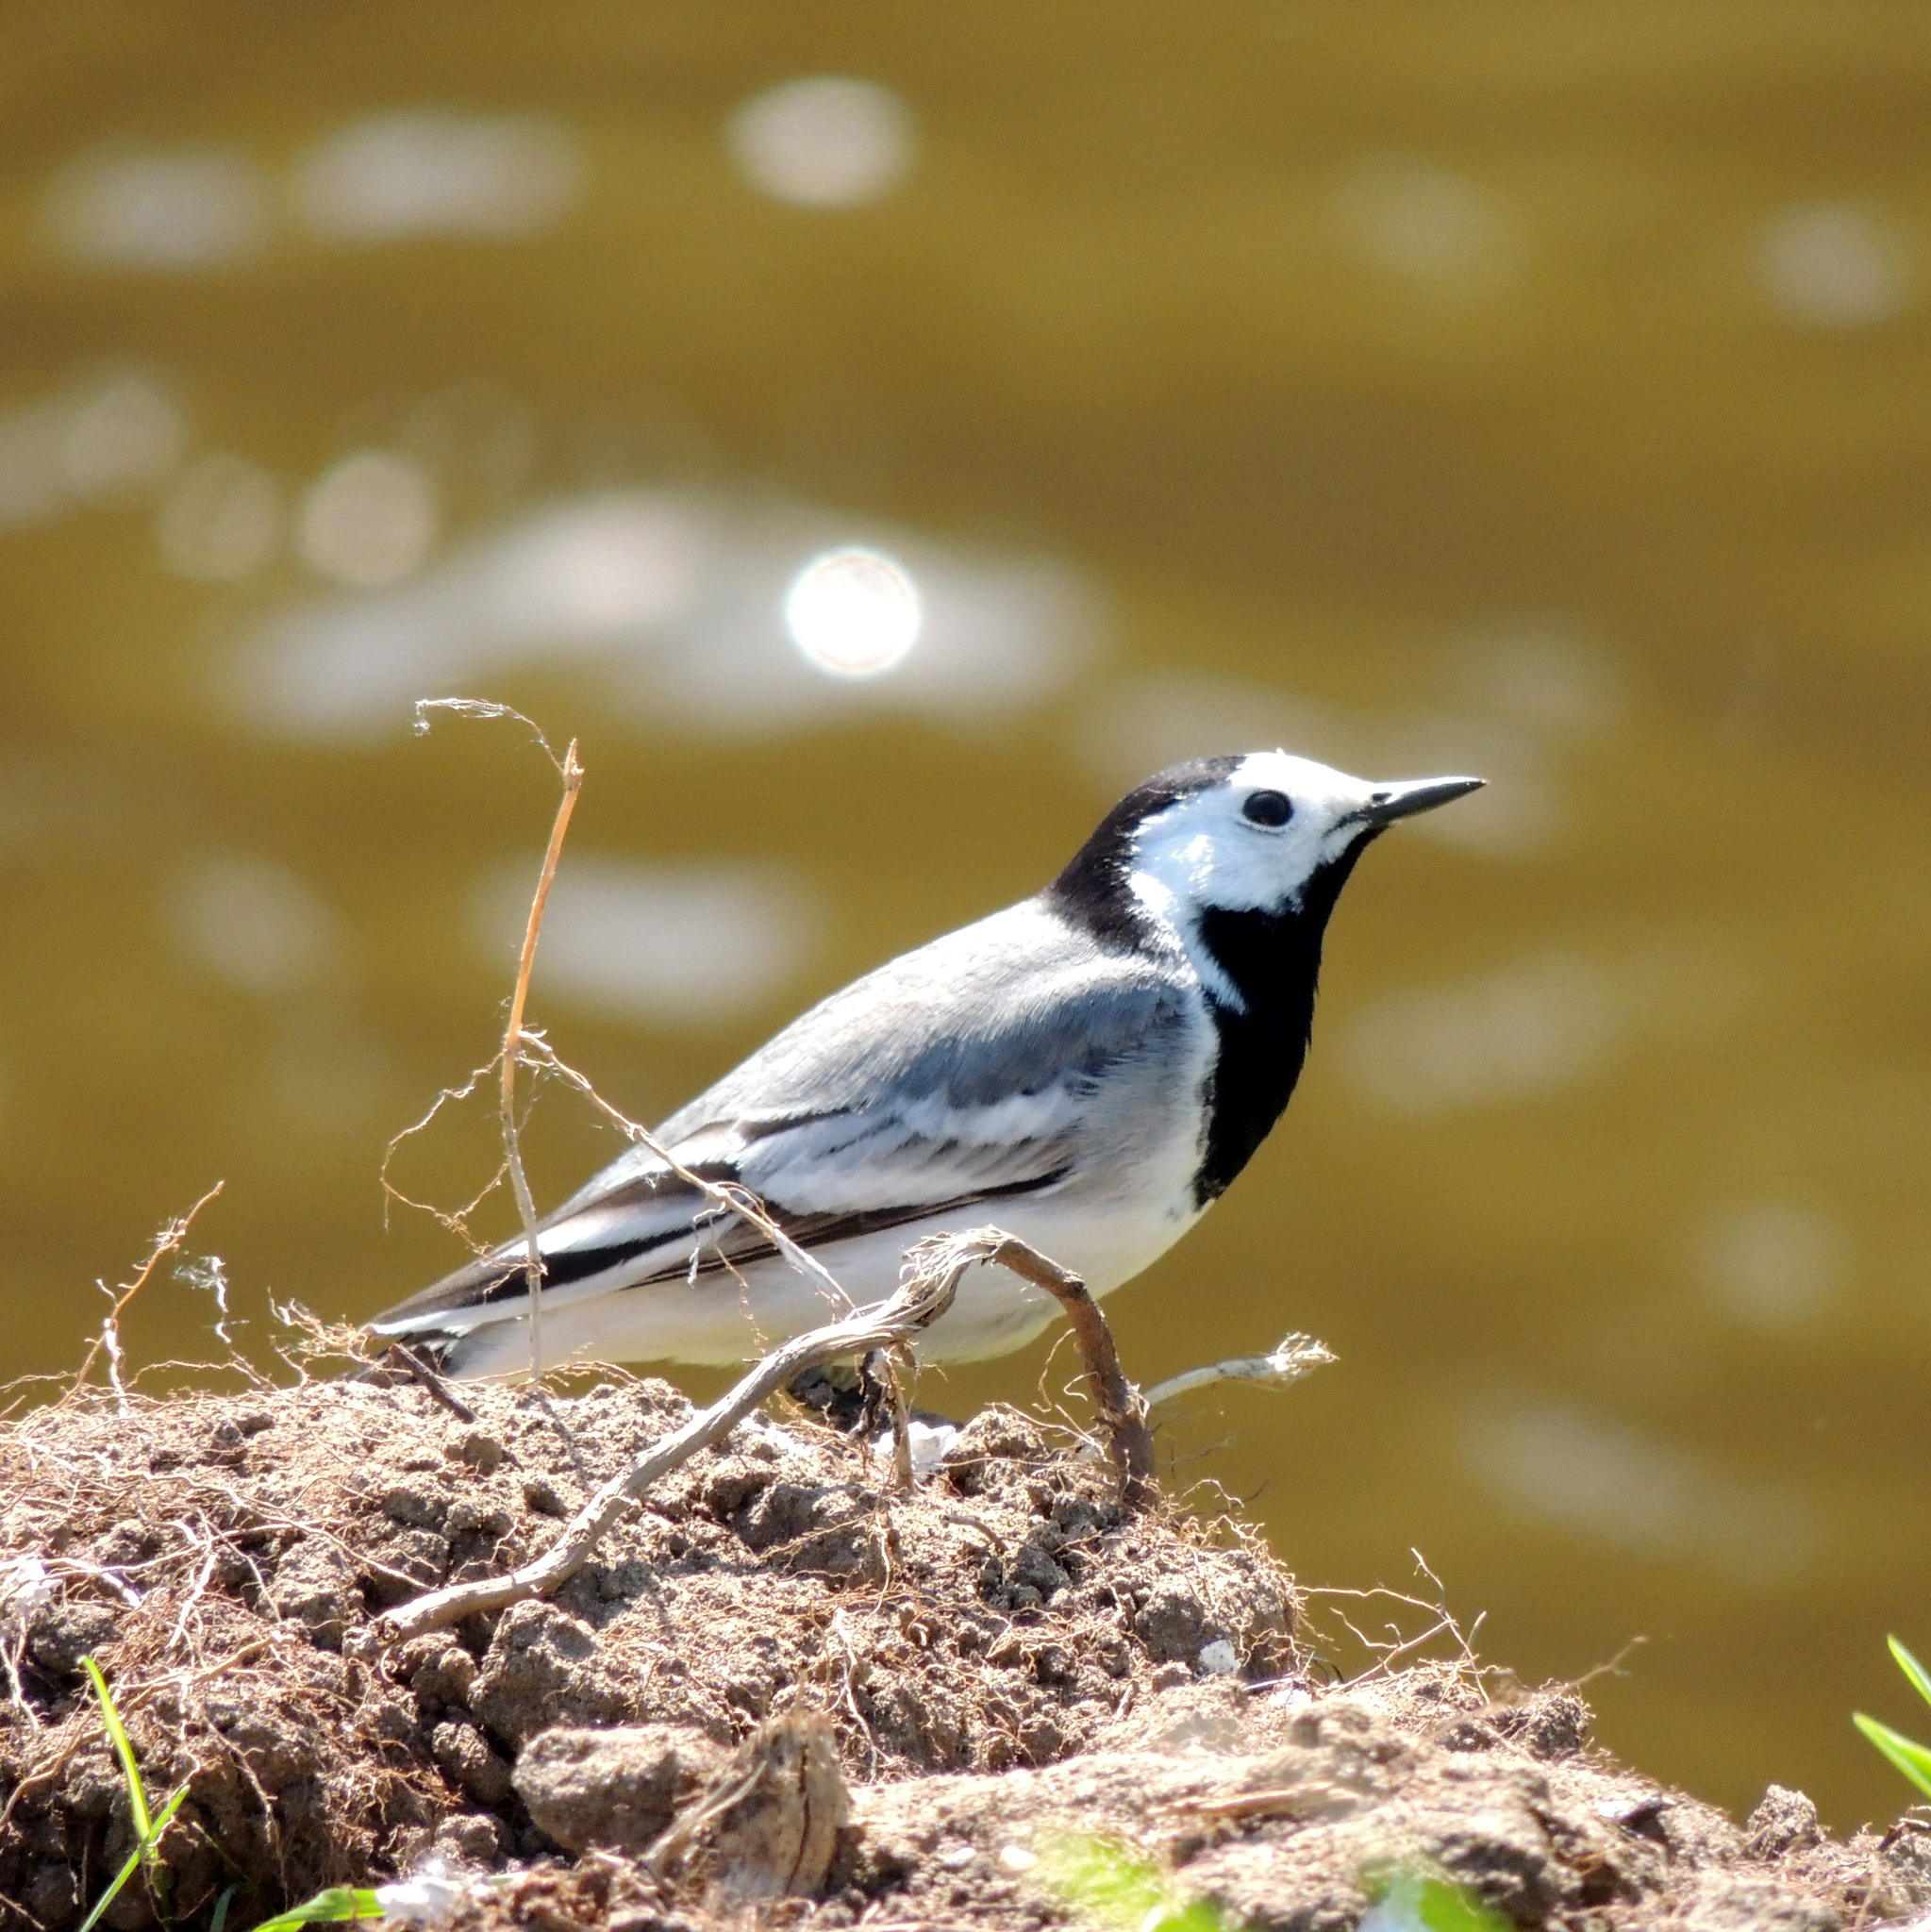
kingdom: Animalia
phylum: Chordata
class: Aves
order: Passeriformes
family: Motacillidae
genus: Motacilla
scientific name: Motacilla alba
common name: White wagtail
